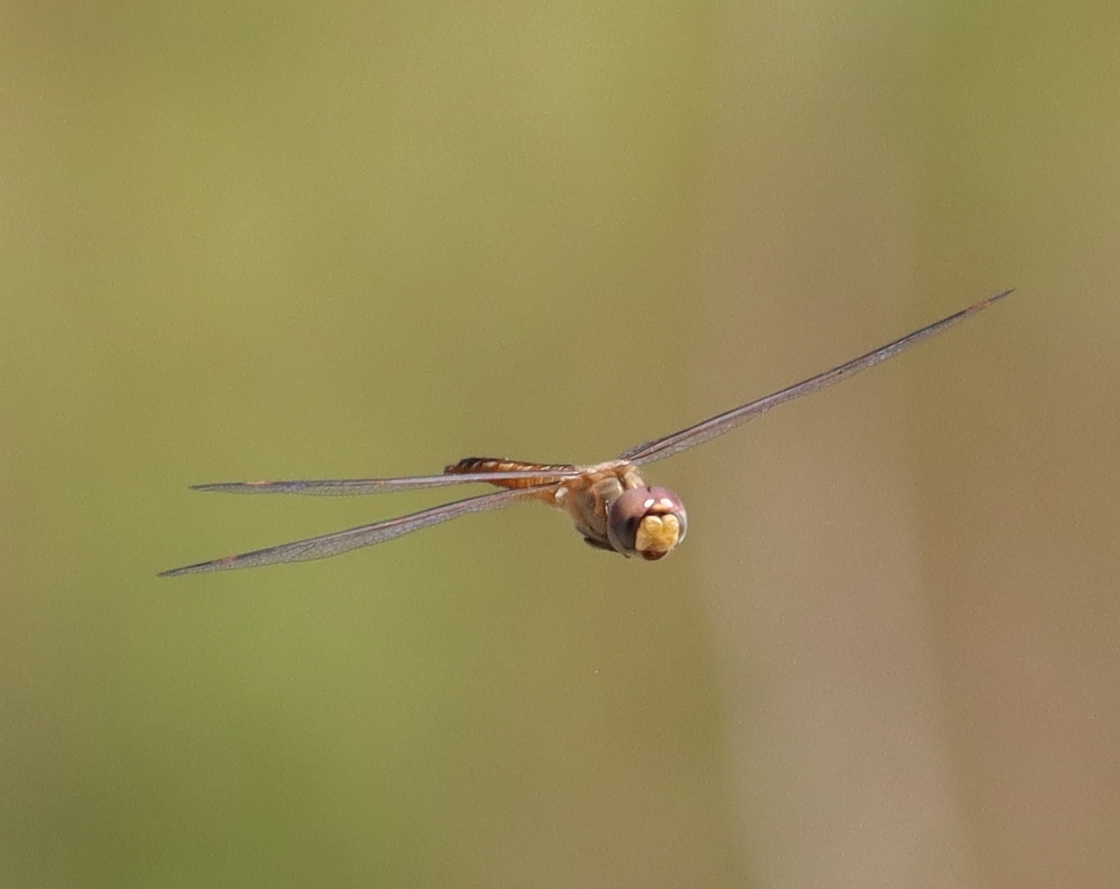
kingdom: Animalia
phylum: Arthropoda
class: Insecta
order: Odonata
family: Libellulidae
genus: Pantala
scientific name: Pantala flavescens
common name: Wandering glider
